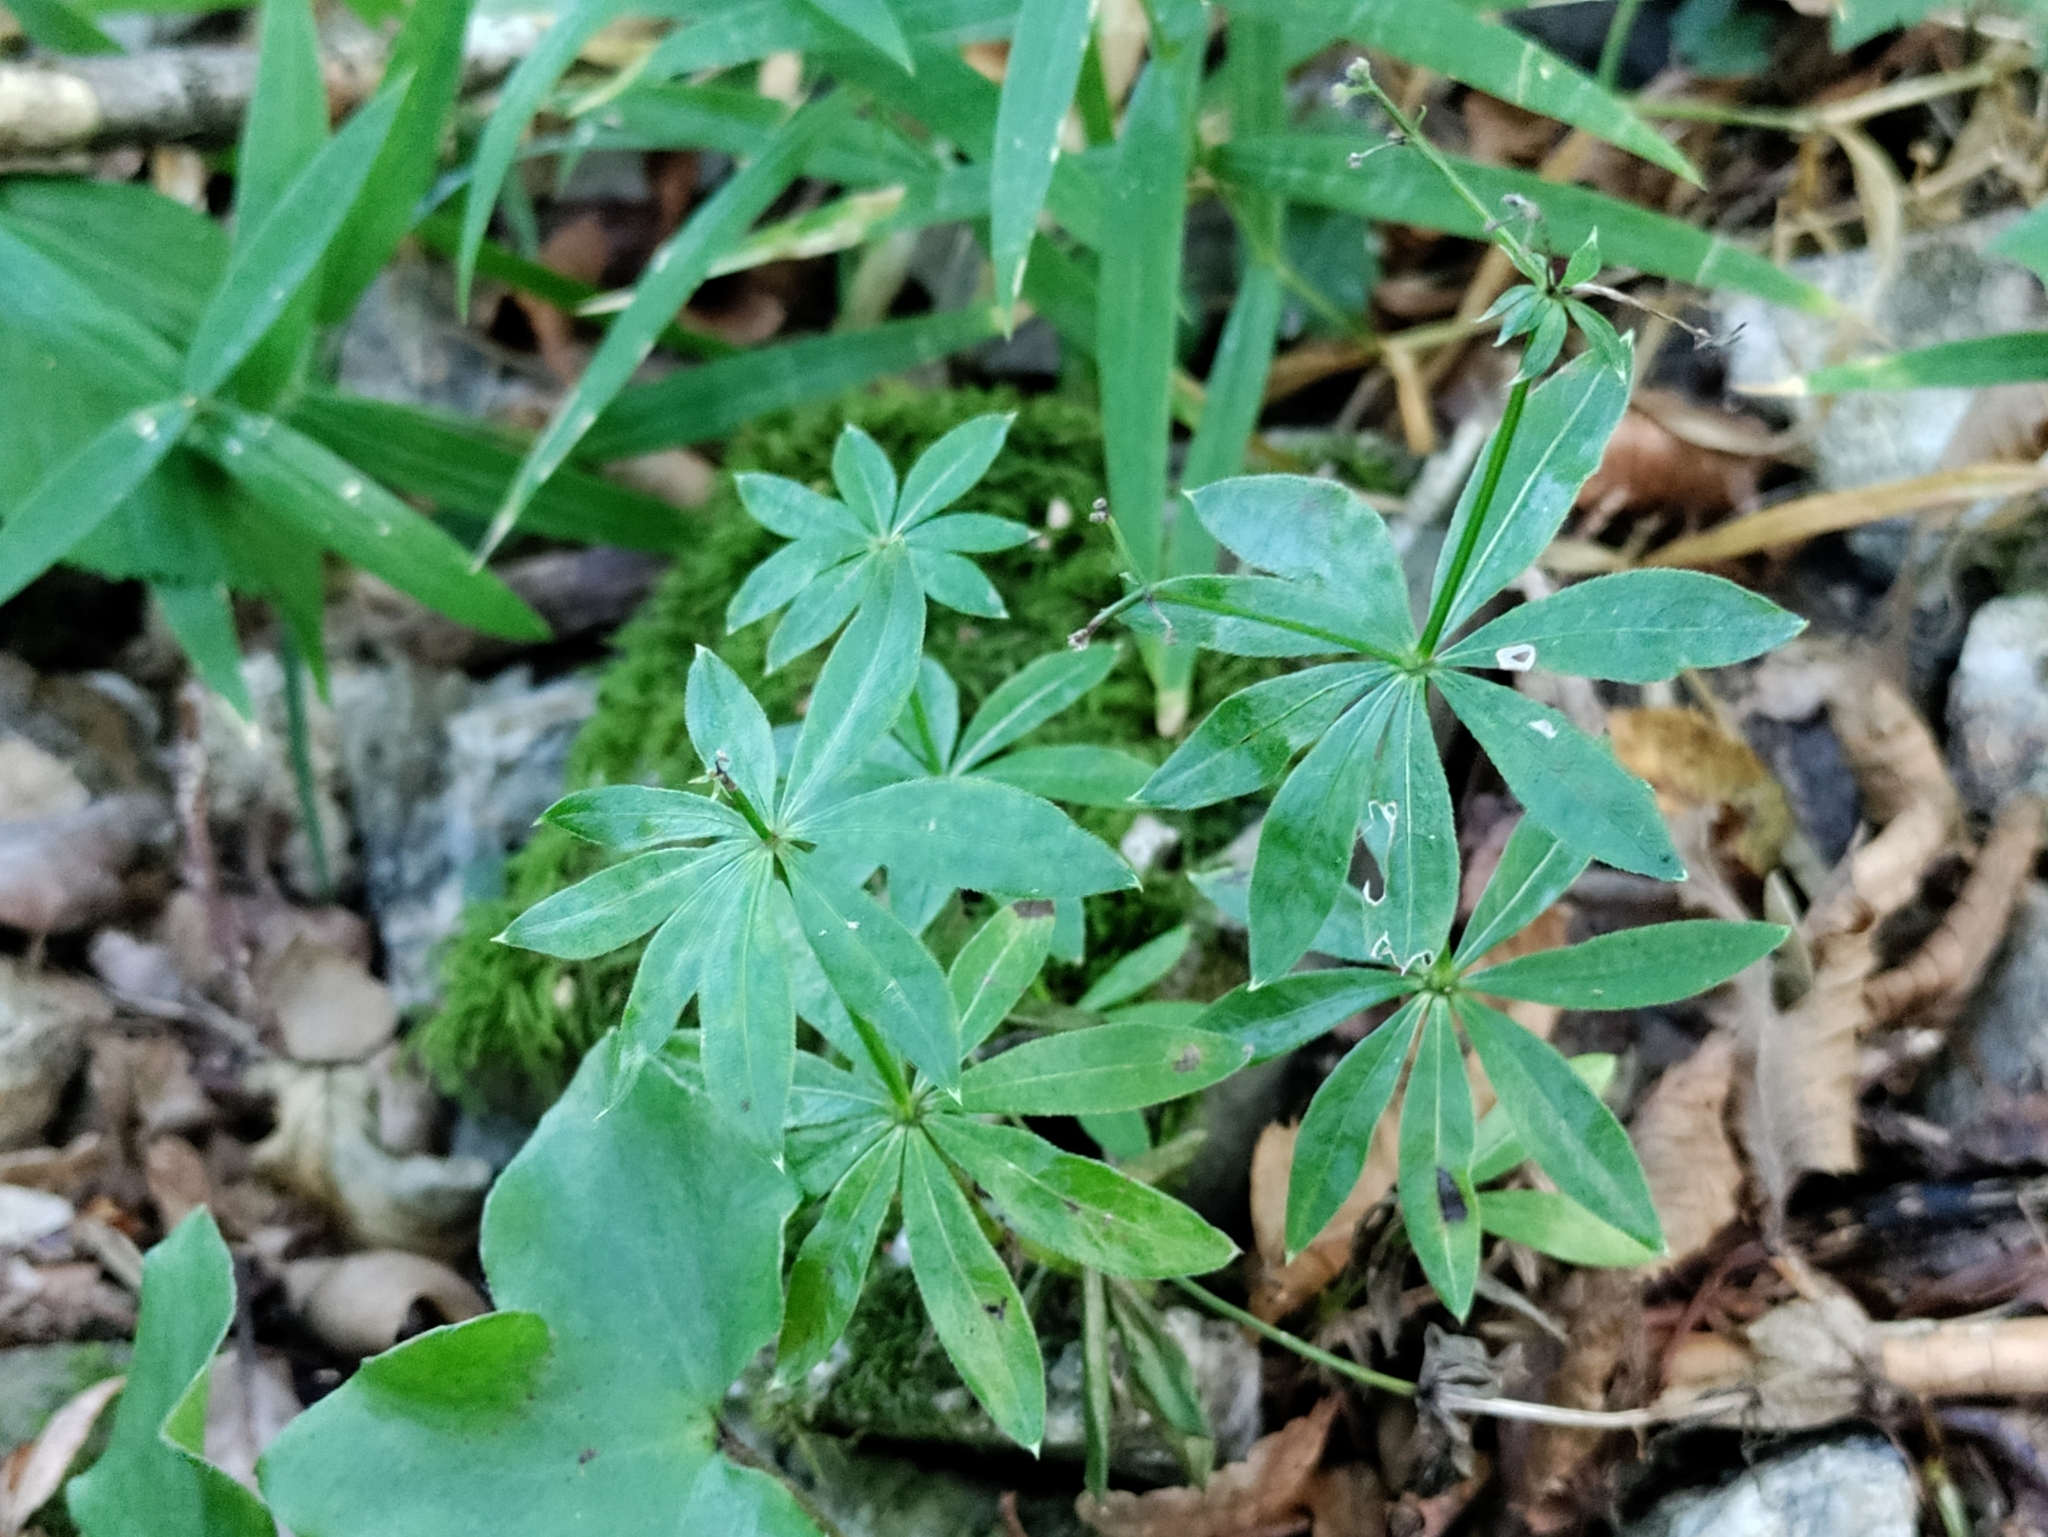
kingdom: Plantae
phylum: Tracheophyta
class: Magnoliopsida
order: Gentianales
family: Rubiaceae
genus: Galium
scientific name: Galium odoratum
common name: Sweet woodruff
